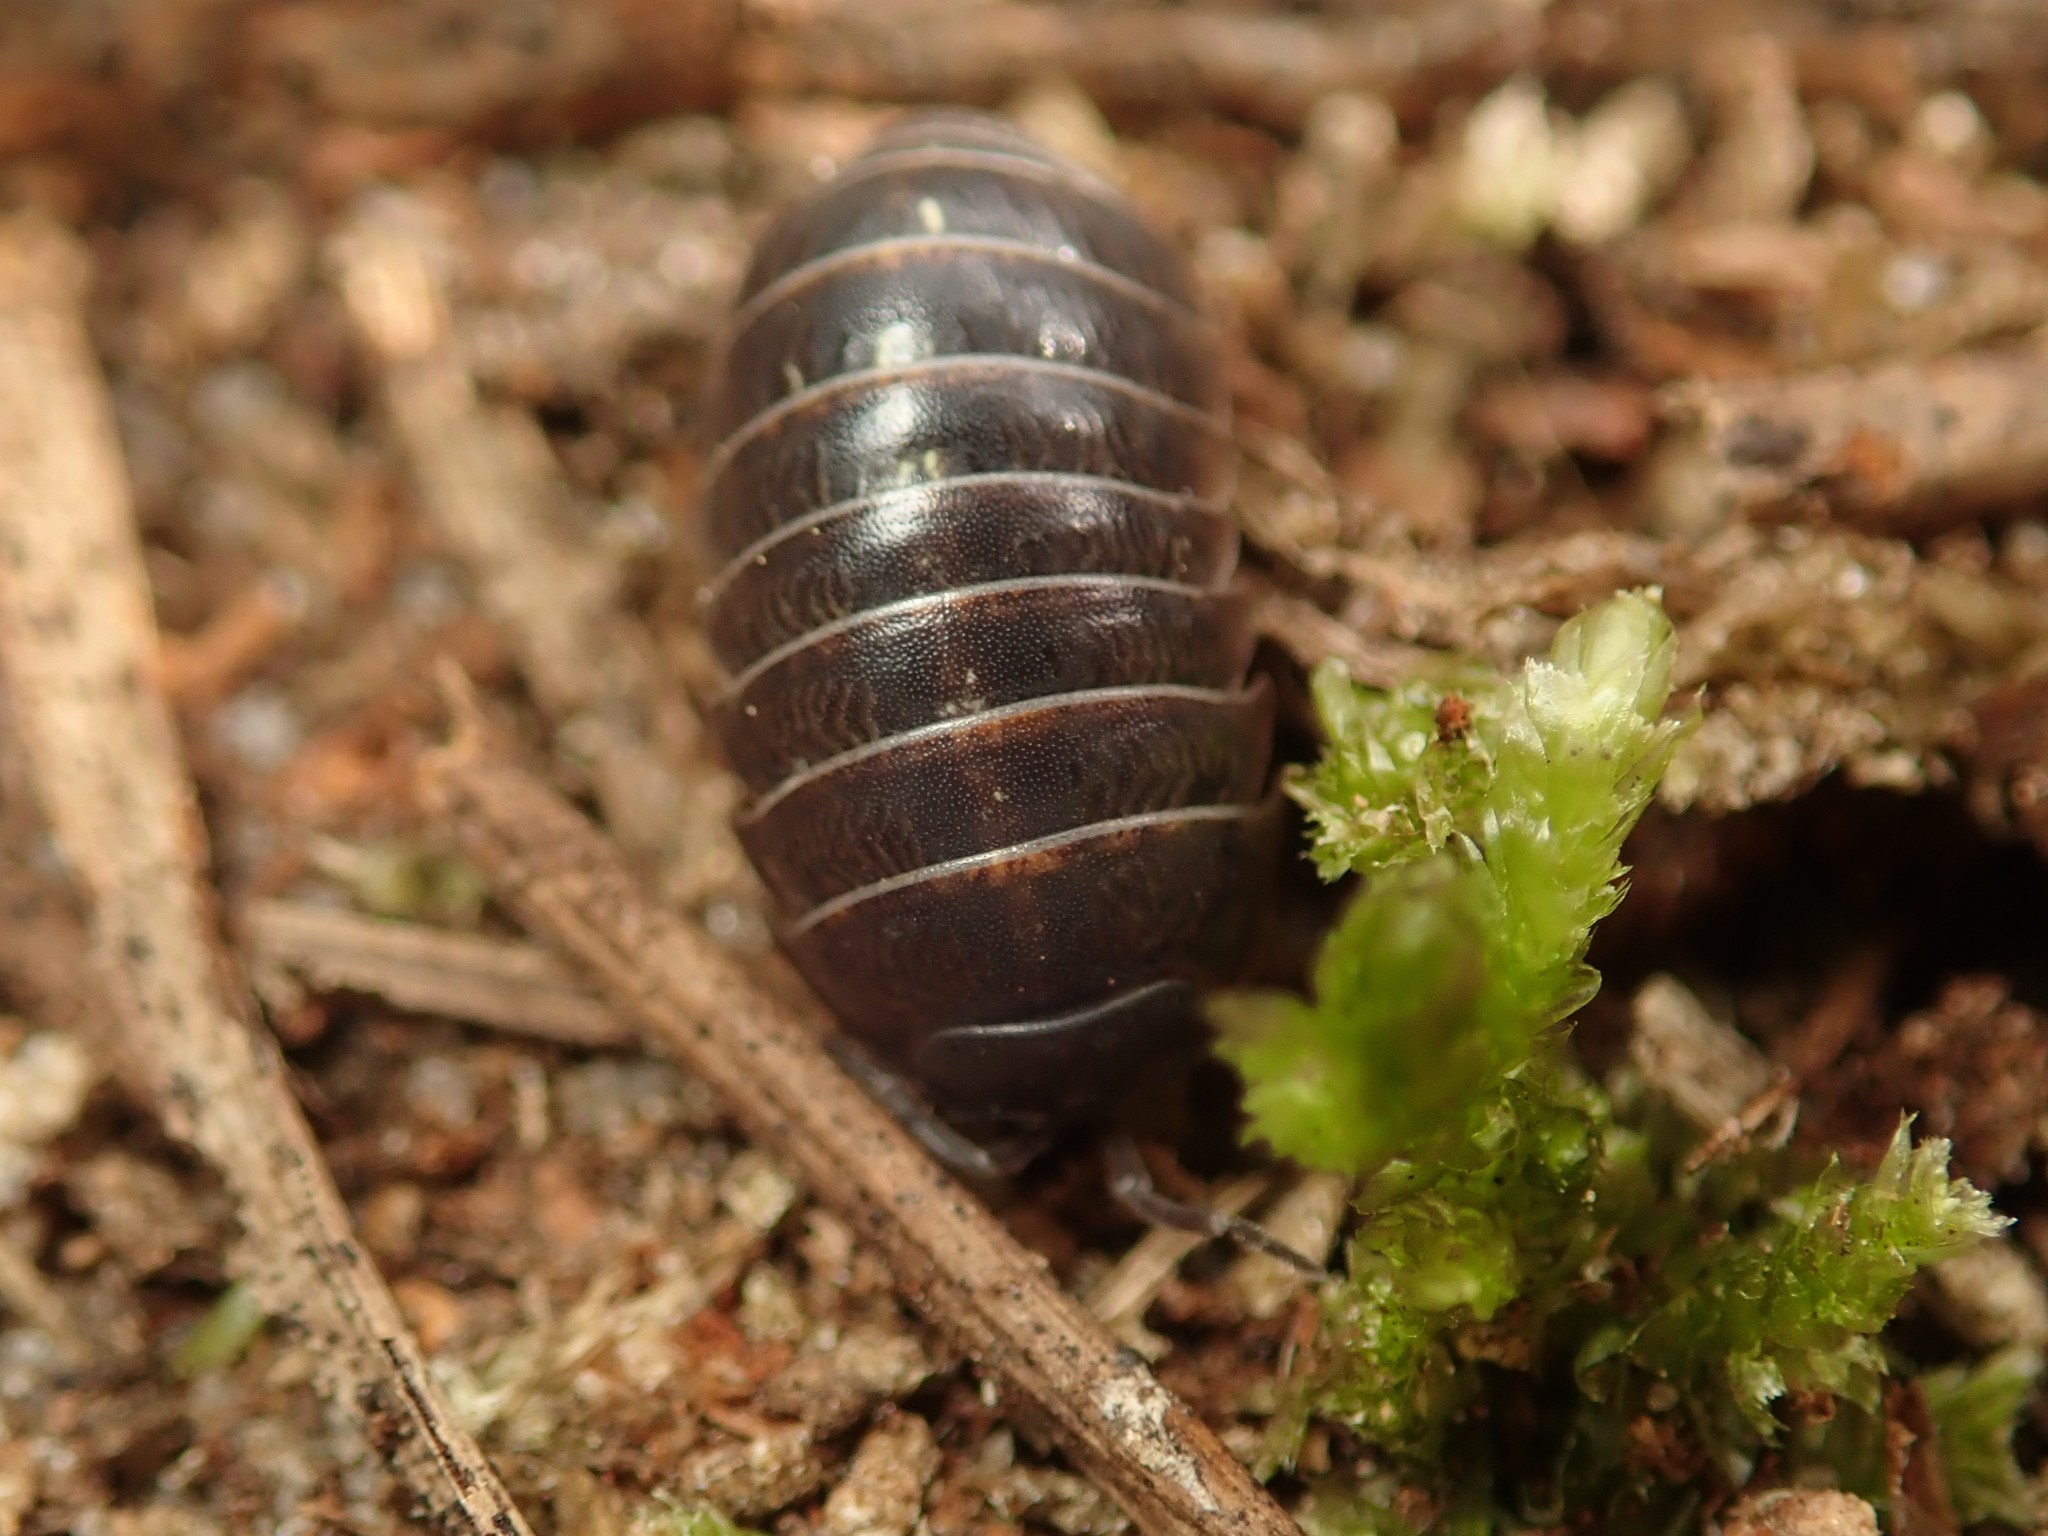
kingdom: Animalia
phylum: Arthropoda
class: Malacostraca
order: Isopoda
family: Armadillidiidae
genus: Armadillidium
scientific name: Armadillidium vulgare
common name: Common pill woodlouse
